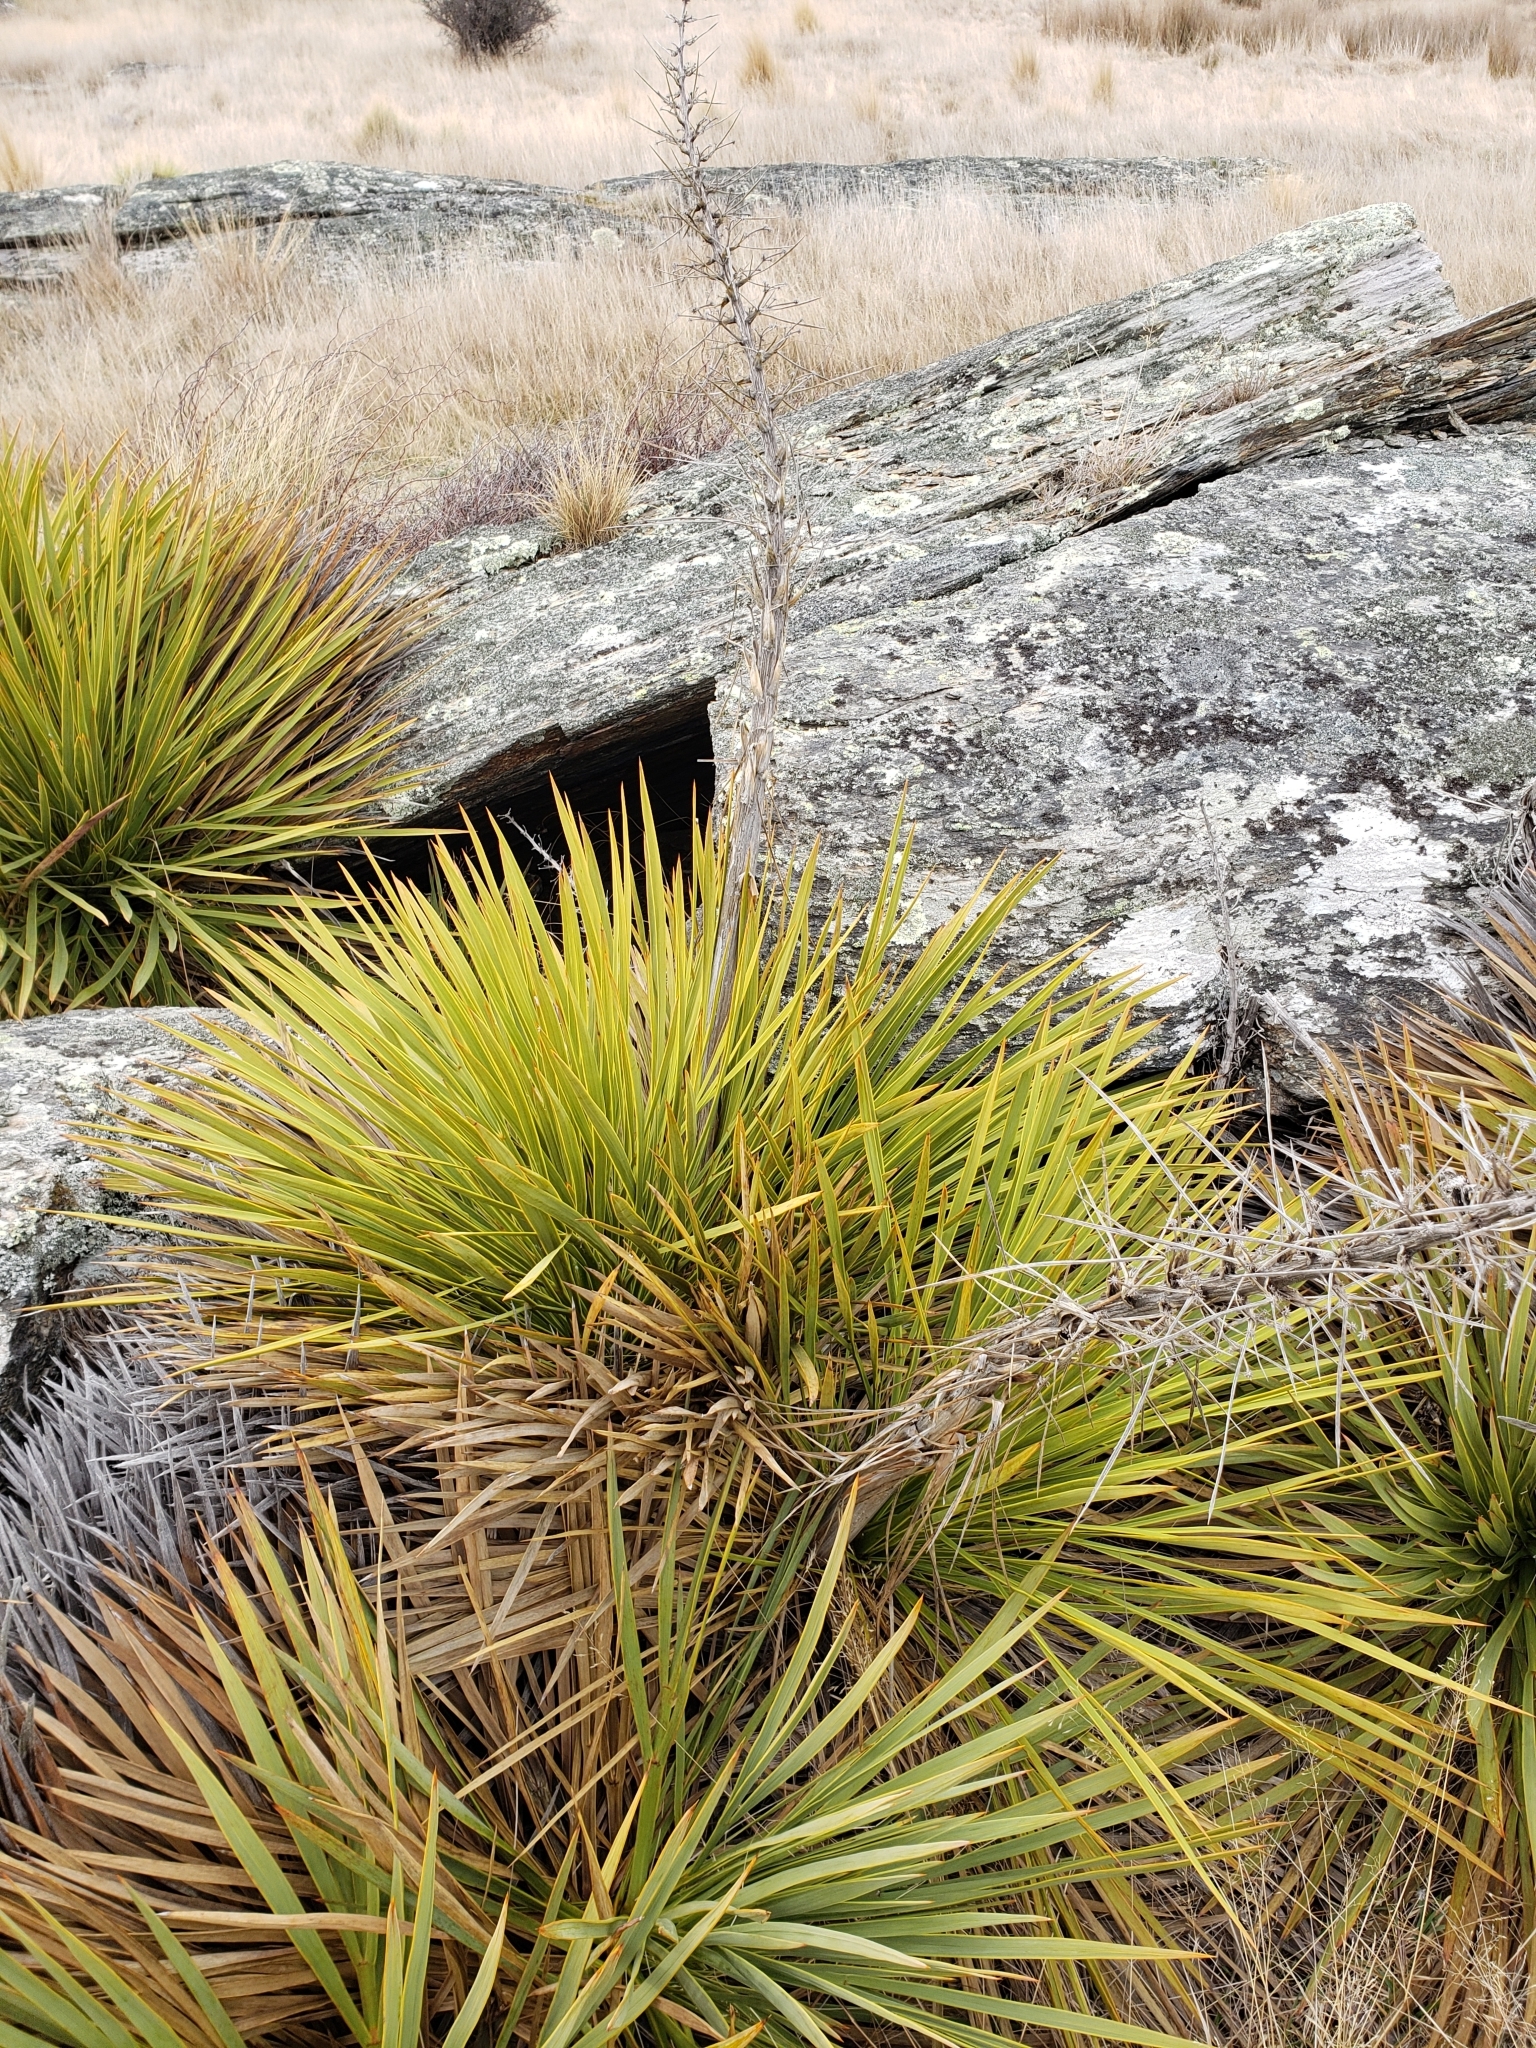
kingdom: Plantae
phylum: Tracheophyta
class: Magnoliopsida
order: Apiales
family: Apiaceae
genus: Aciphylla
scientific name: Aciphylla aurea
